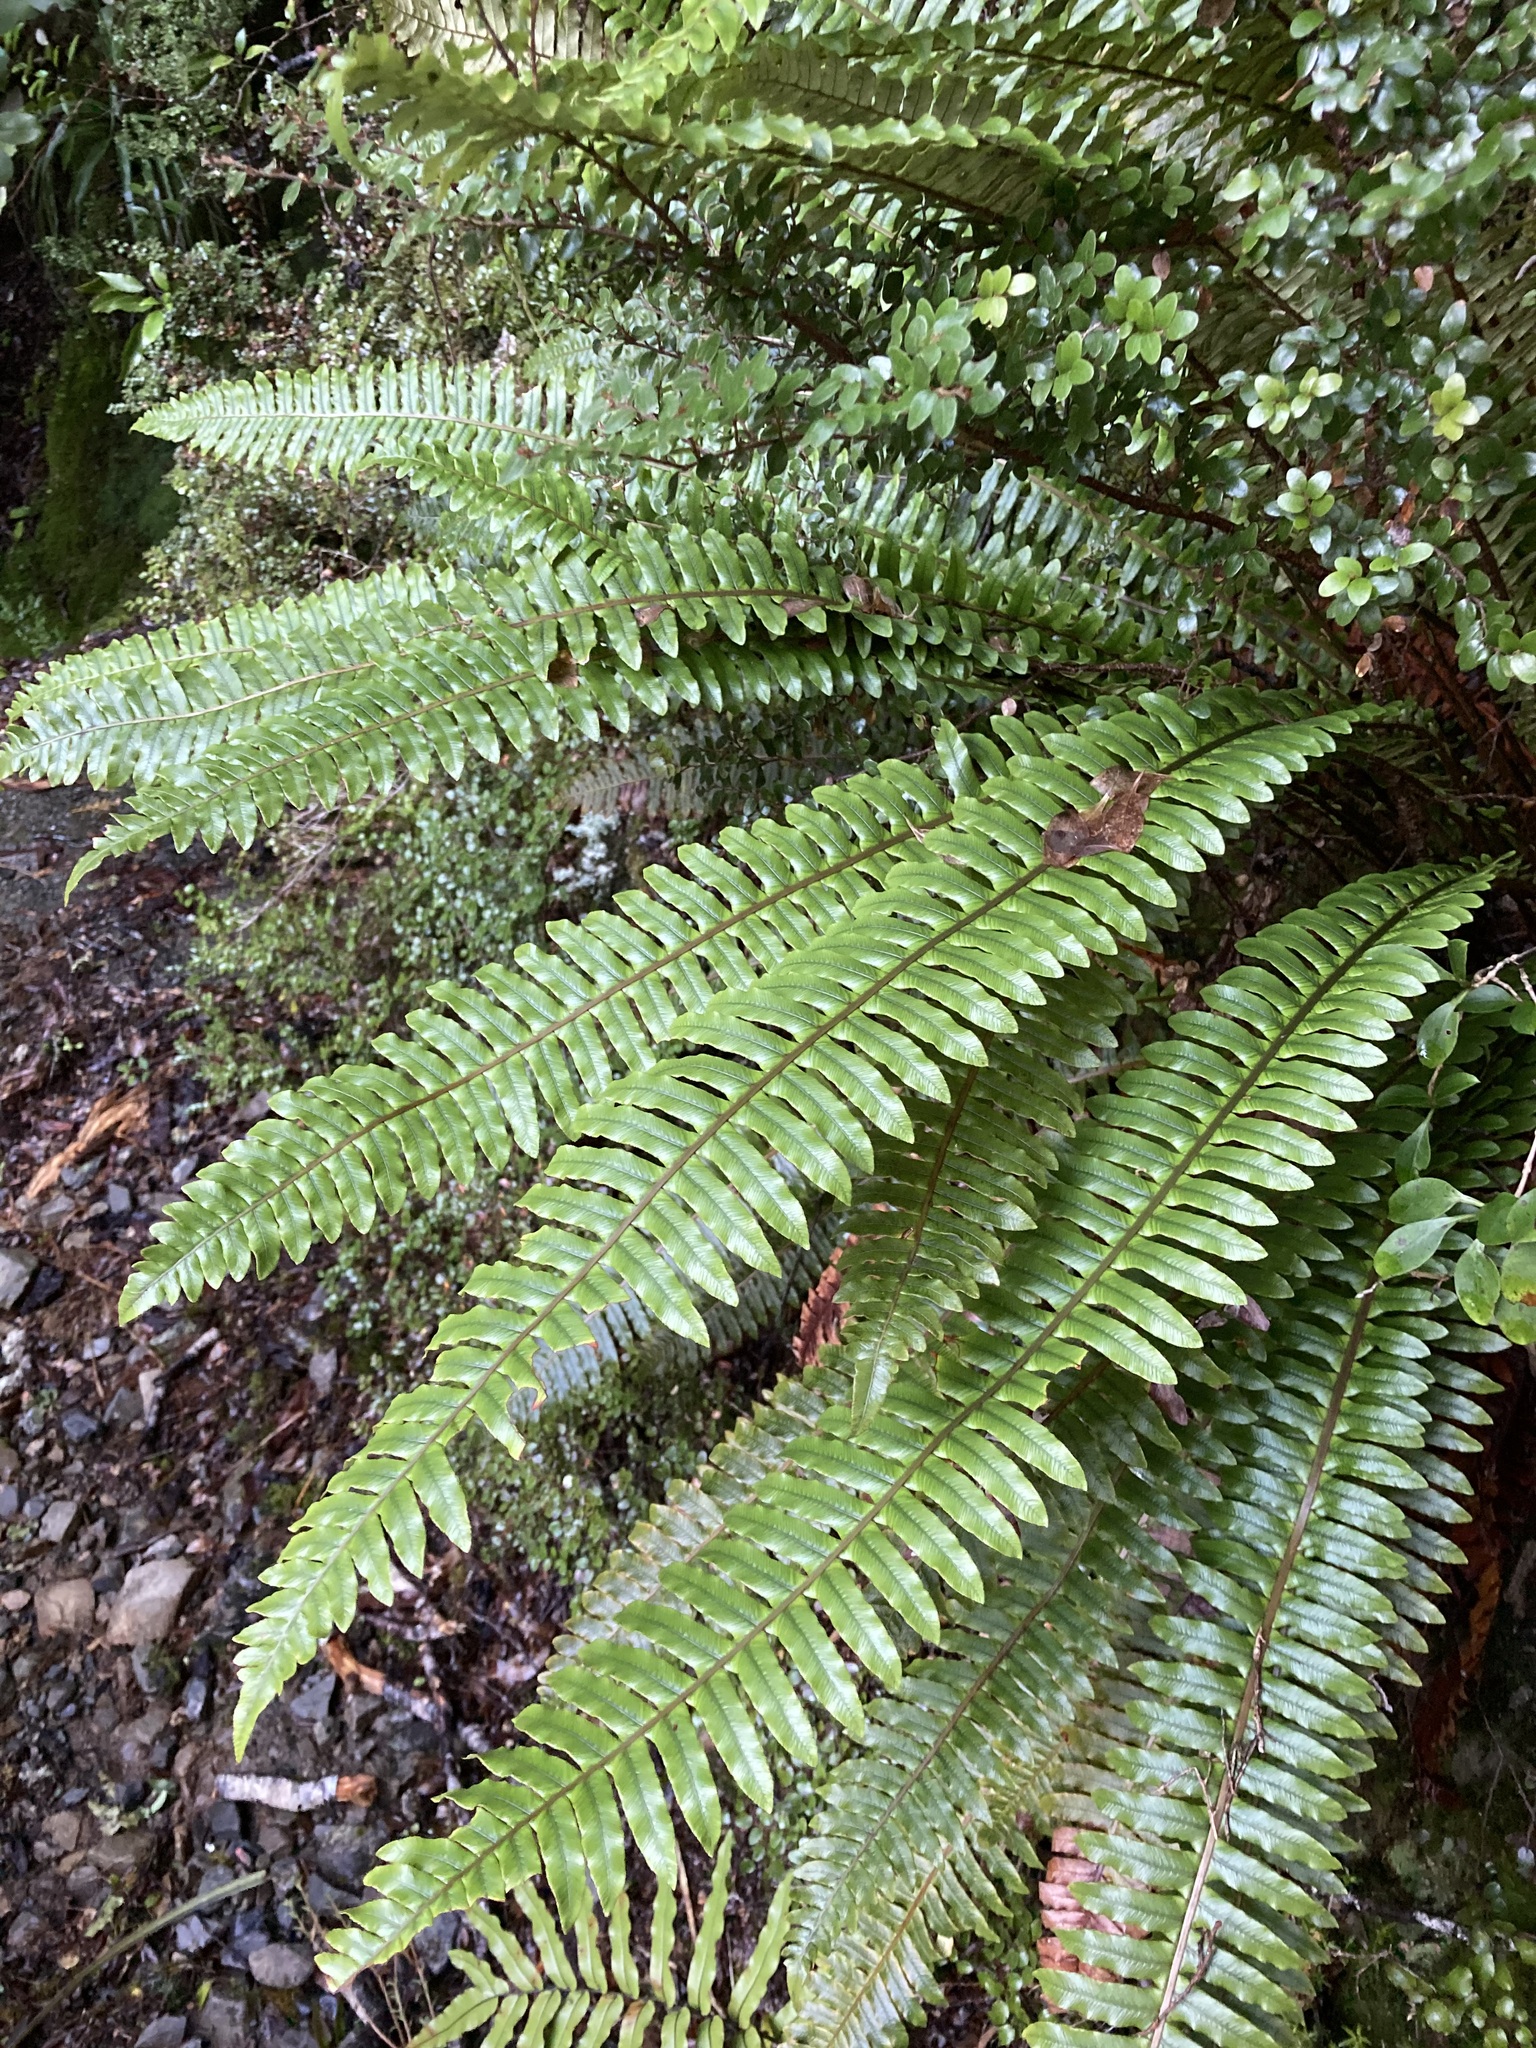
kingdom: Plantae
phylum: Tracheophyta
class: Polypodiopsida
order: Polypodiales
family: Blechnaceae
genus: Lomaria
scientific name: Lomaria discolor
